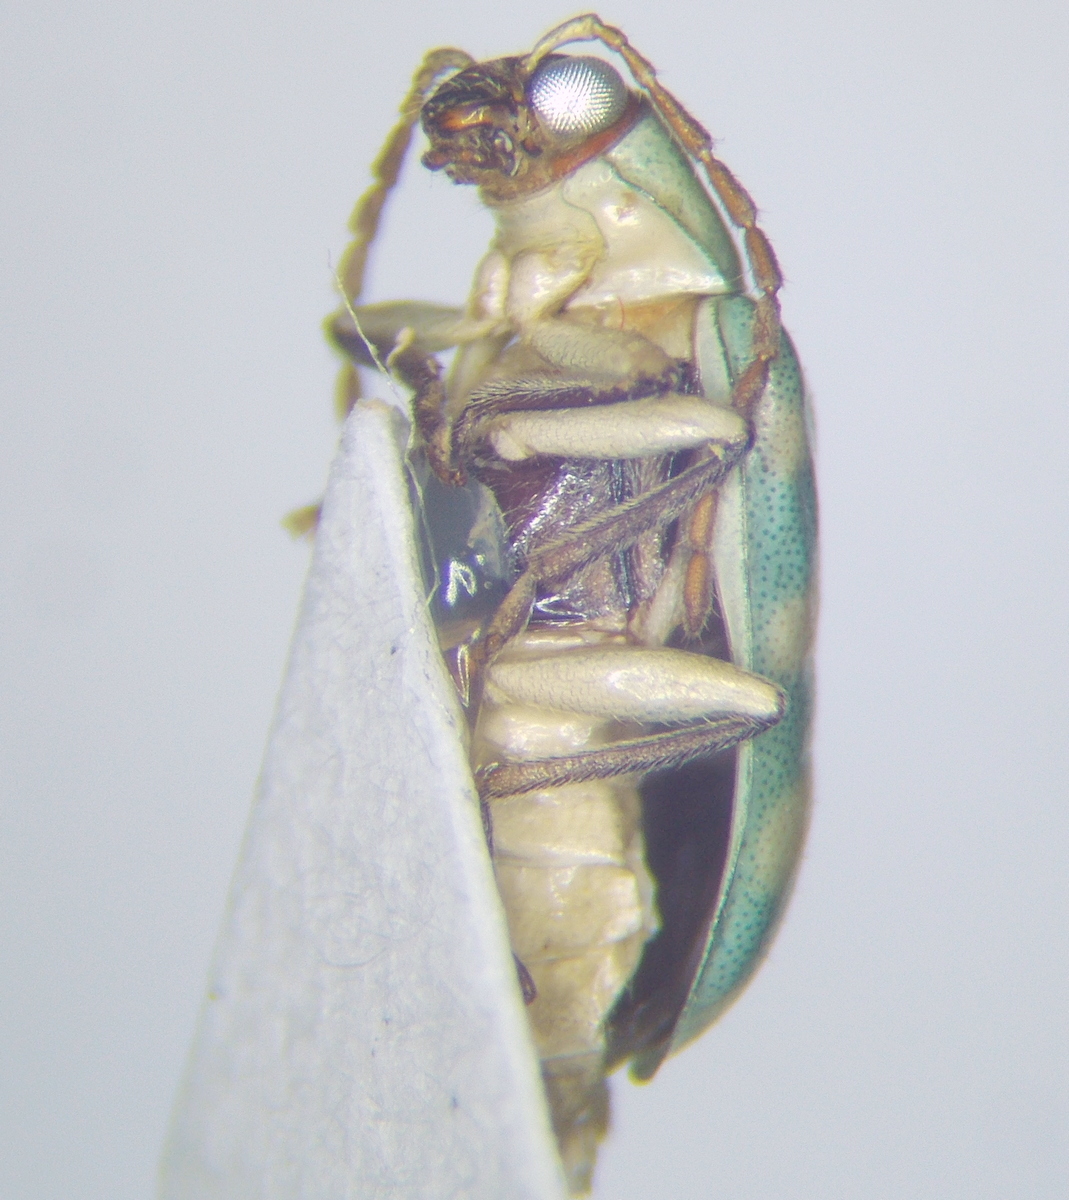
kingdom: Animalia
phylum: Arthropoda
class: Insecta
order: Coleoptera
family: Chrysomelidae
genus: Diabrotica
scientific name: Diabrotica balteata
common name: Leaf beetle
